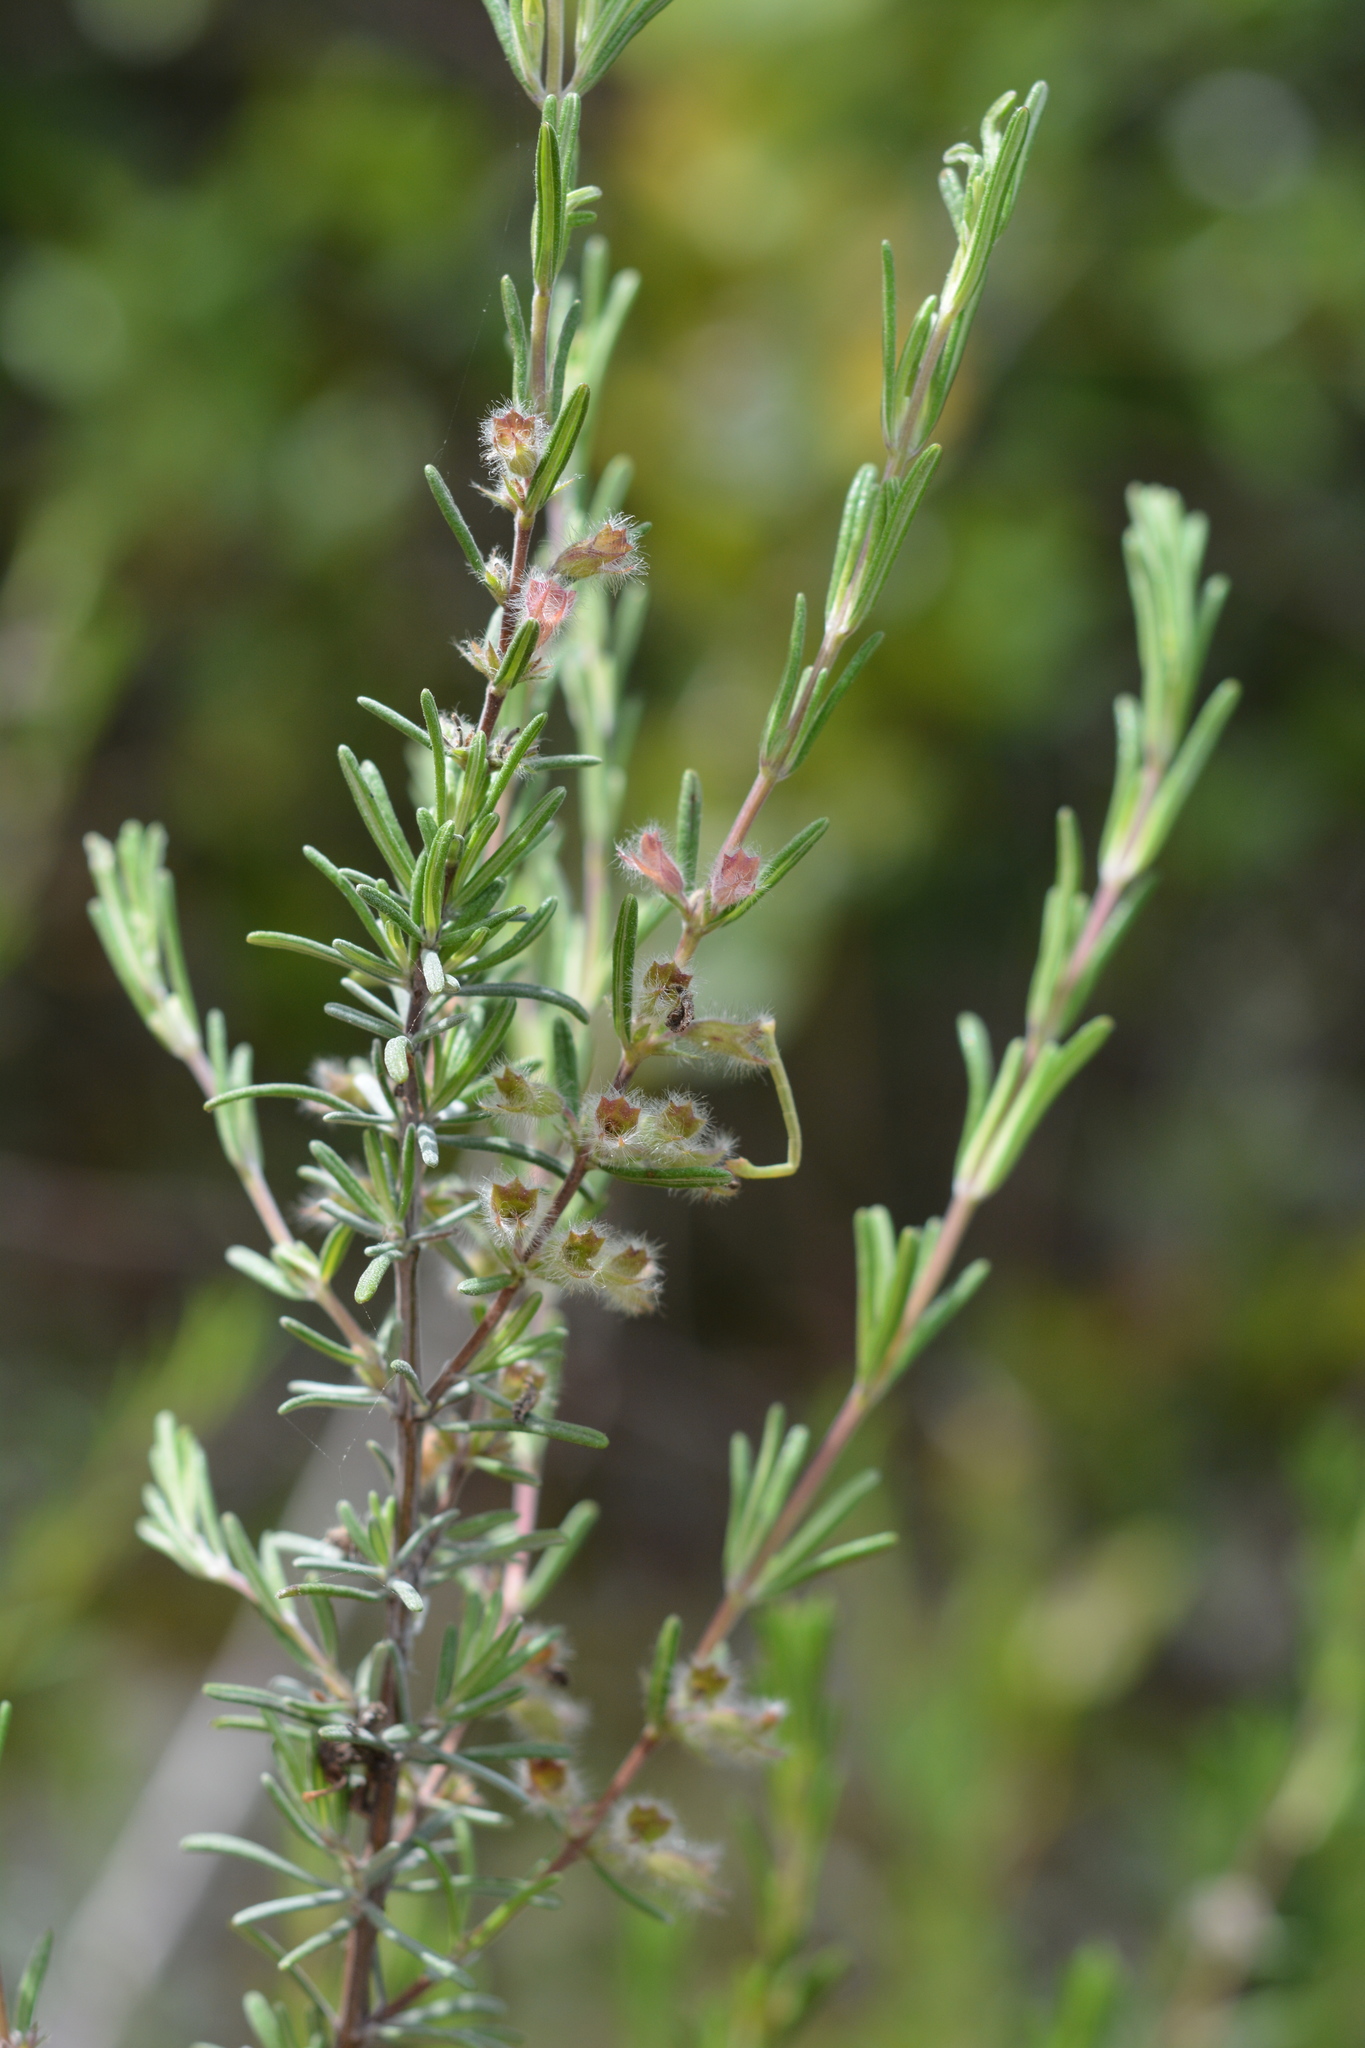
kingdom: Plantae
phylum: Tracheophyta
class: Magnoliopsida
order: Lamiales
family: Lamiaceae
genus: Conradina
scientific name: Conradina canescens
